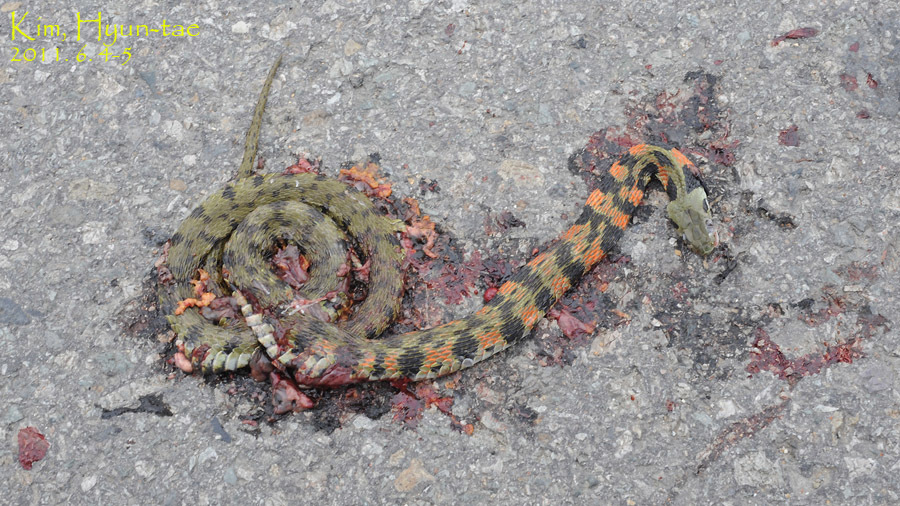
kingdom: Animalia
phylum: Chordata
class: Squamata
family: Colubridae
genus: Rhabdophis
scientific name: Rhabdophis tigrinus
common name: Tiger keelback
